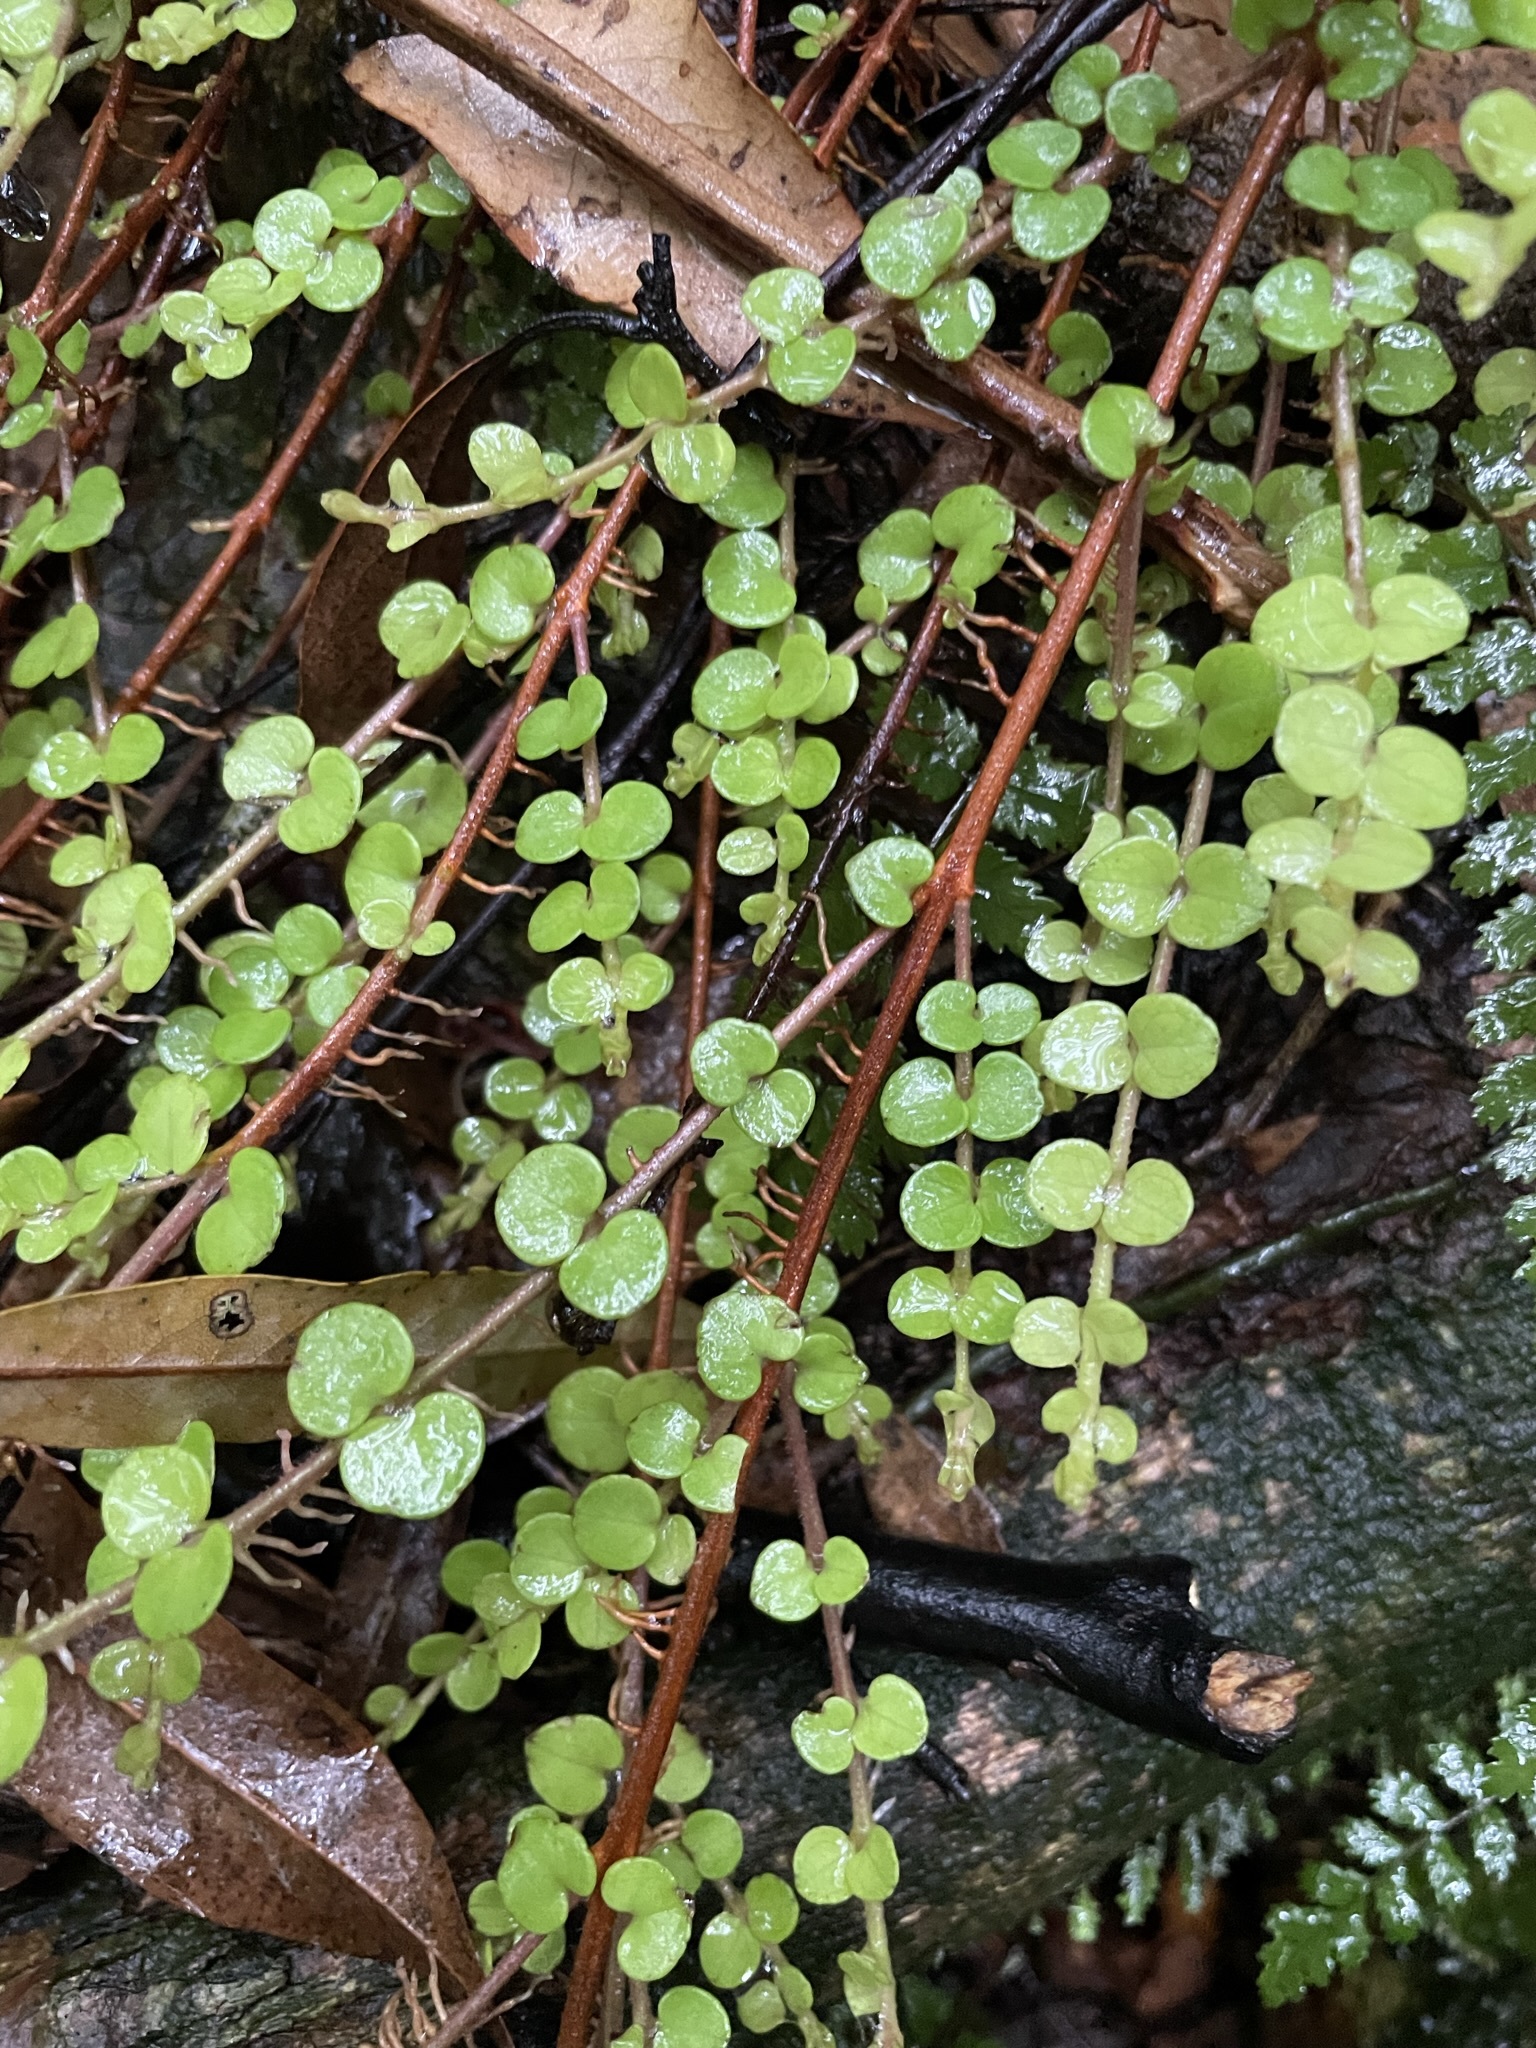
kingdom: Plantae
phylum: Tracheophyta
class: Magnoliopsida
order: Myrtales
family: Myrtaceae
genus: Metrosideros
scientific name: Metrosideros perforata
